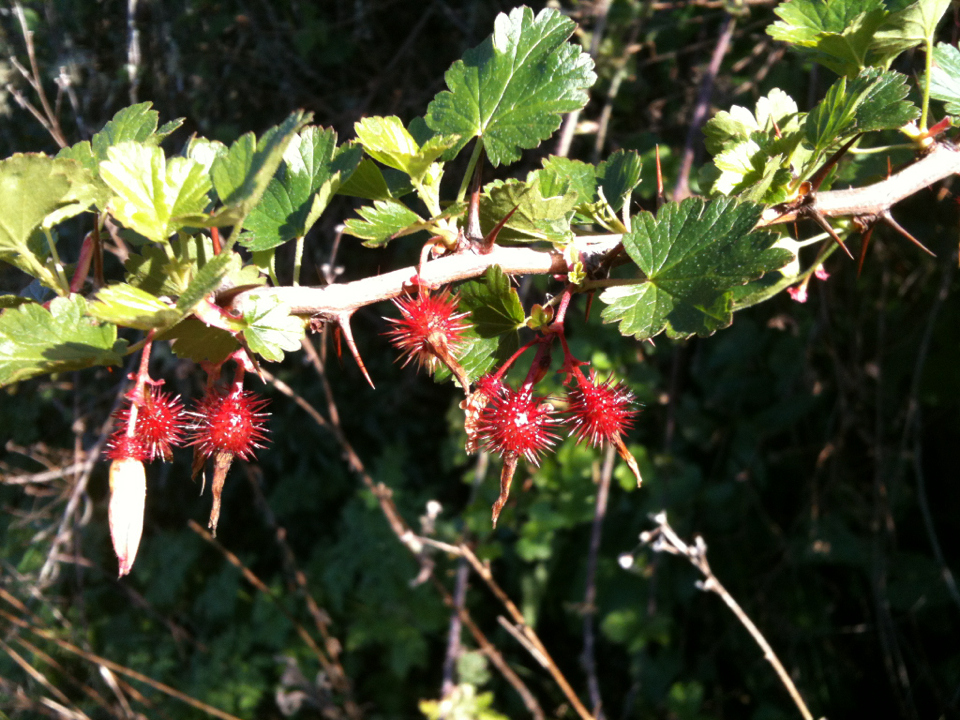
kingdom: Plantae
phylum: Tracheophyta
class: Magnoliopsida
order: Saxifragales
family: Grossulariaceae
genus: Ribes
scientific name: Ribes californicum
